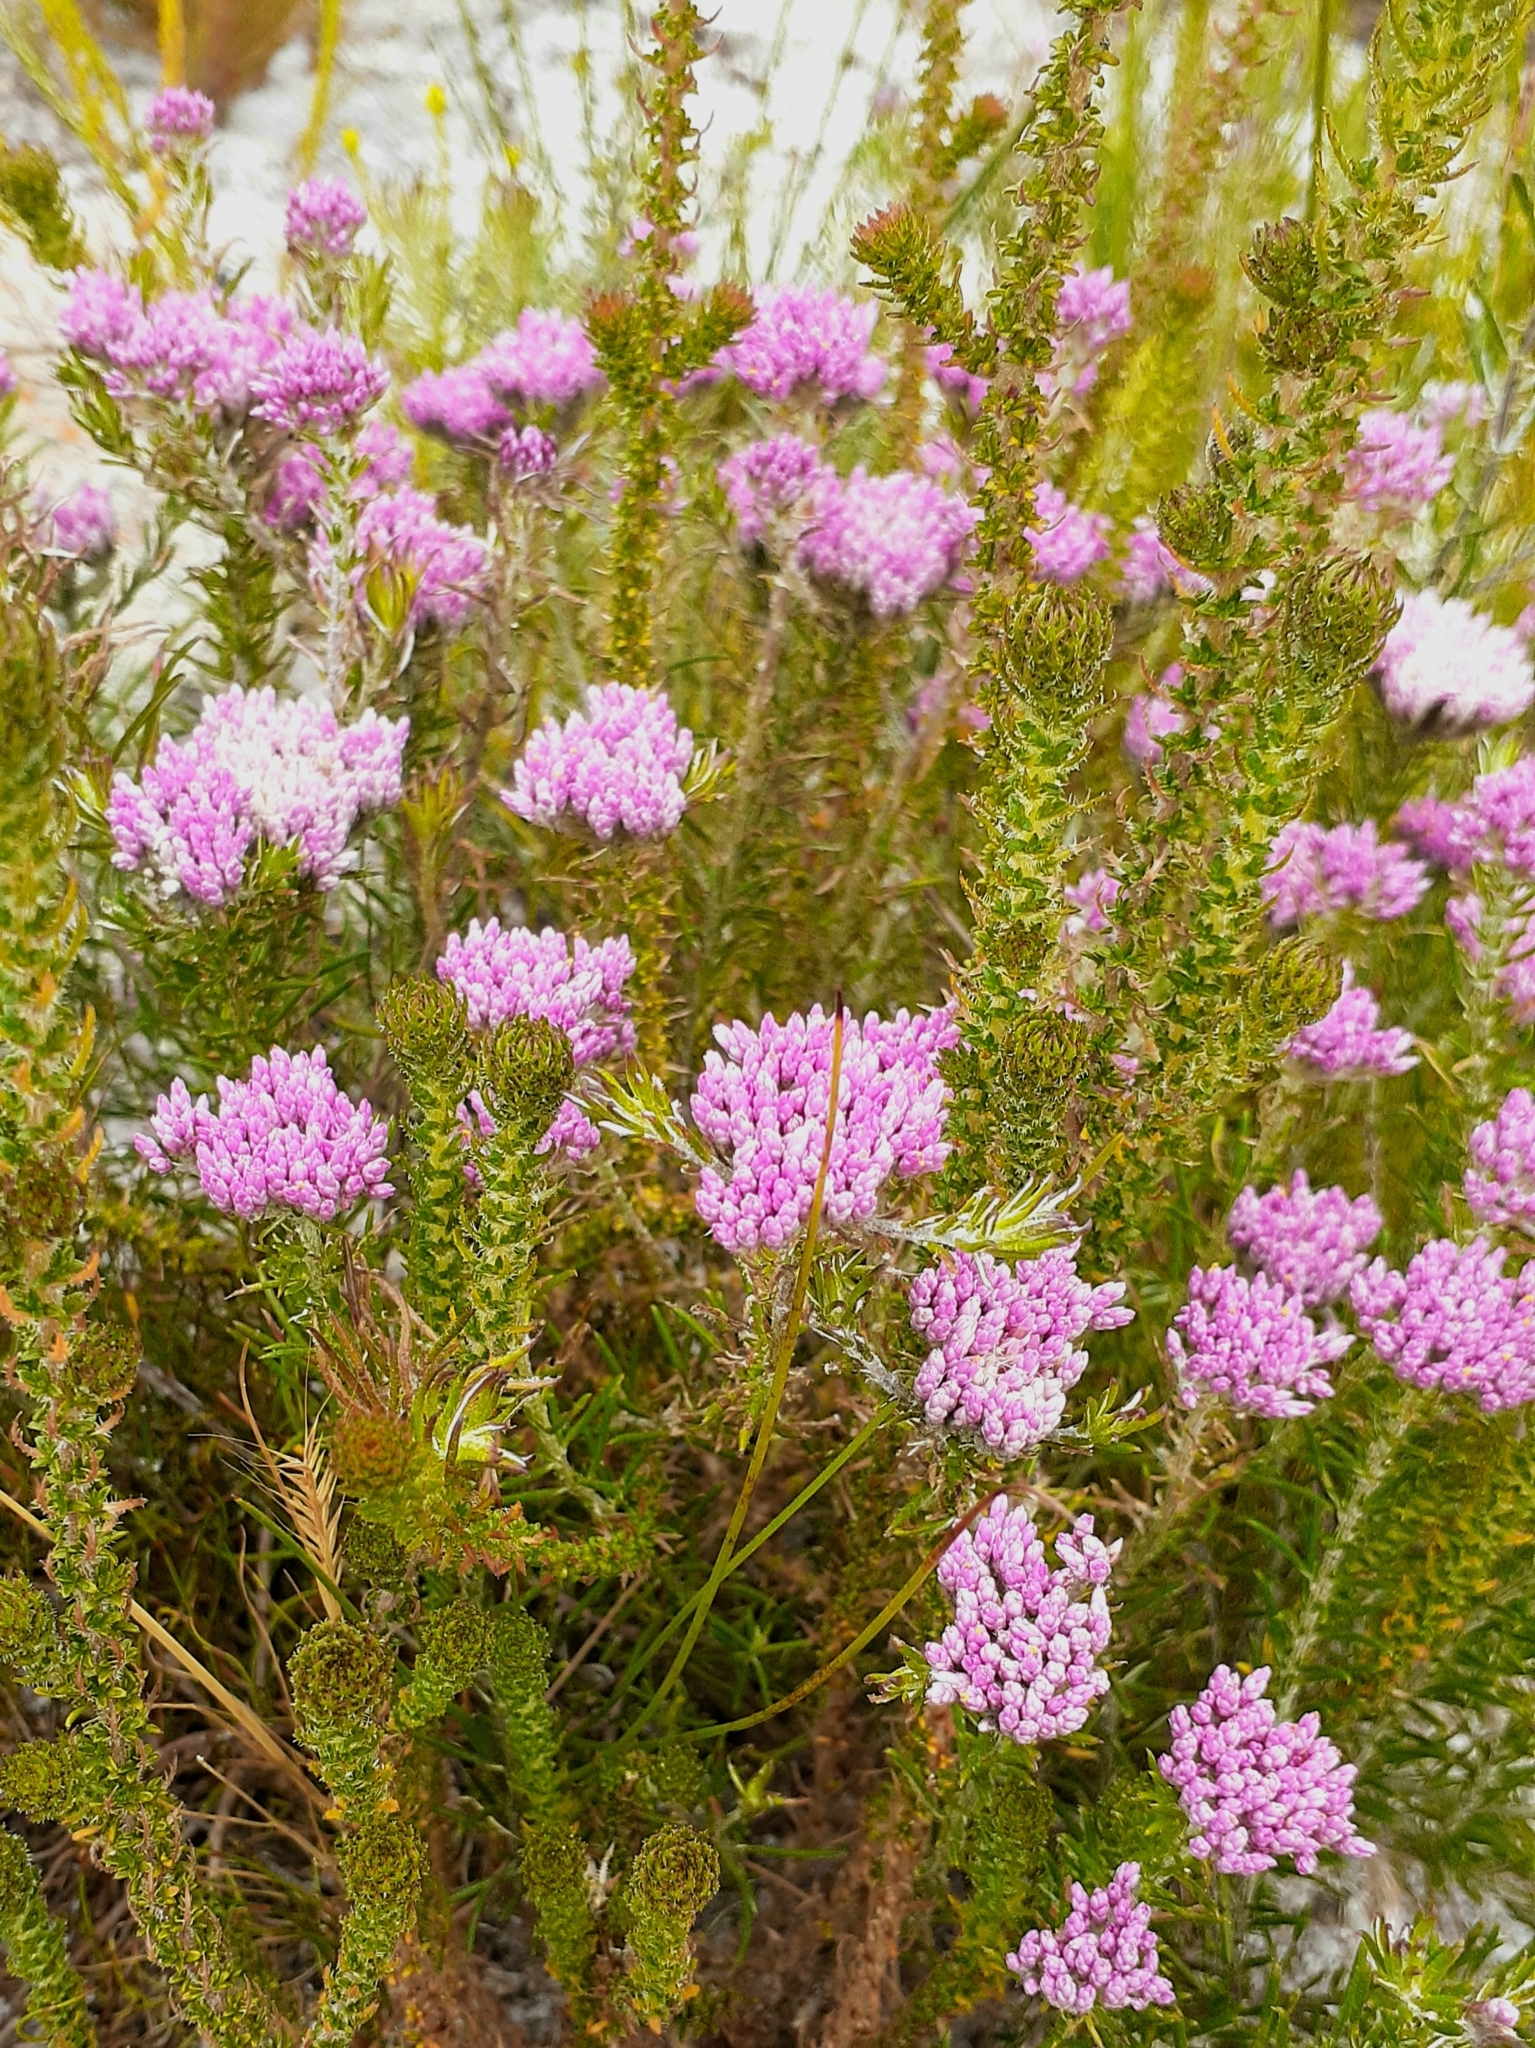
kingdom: Plantae
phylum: Tracheophyta
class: Magnoliopsida
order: Asterales
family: Asteraceae
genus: Metalasia
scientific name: Metalasia erubescens
